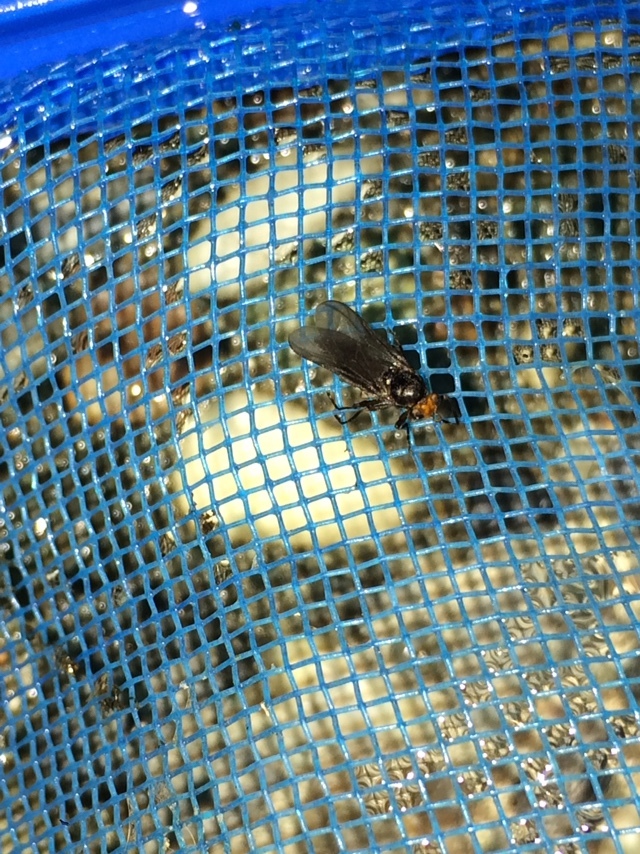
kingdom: Animalia
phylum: Arthropoda
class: Insecta
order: Diptera
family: Stratiomyidae
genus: Inopus
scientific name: Inopus rubriceps
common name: Soldier fly
